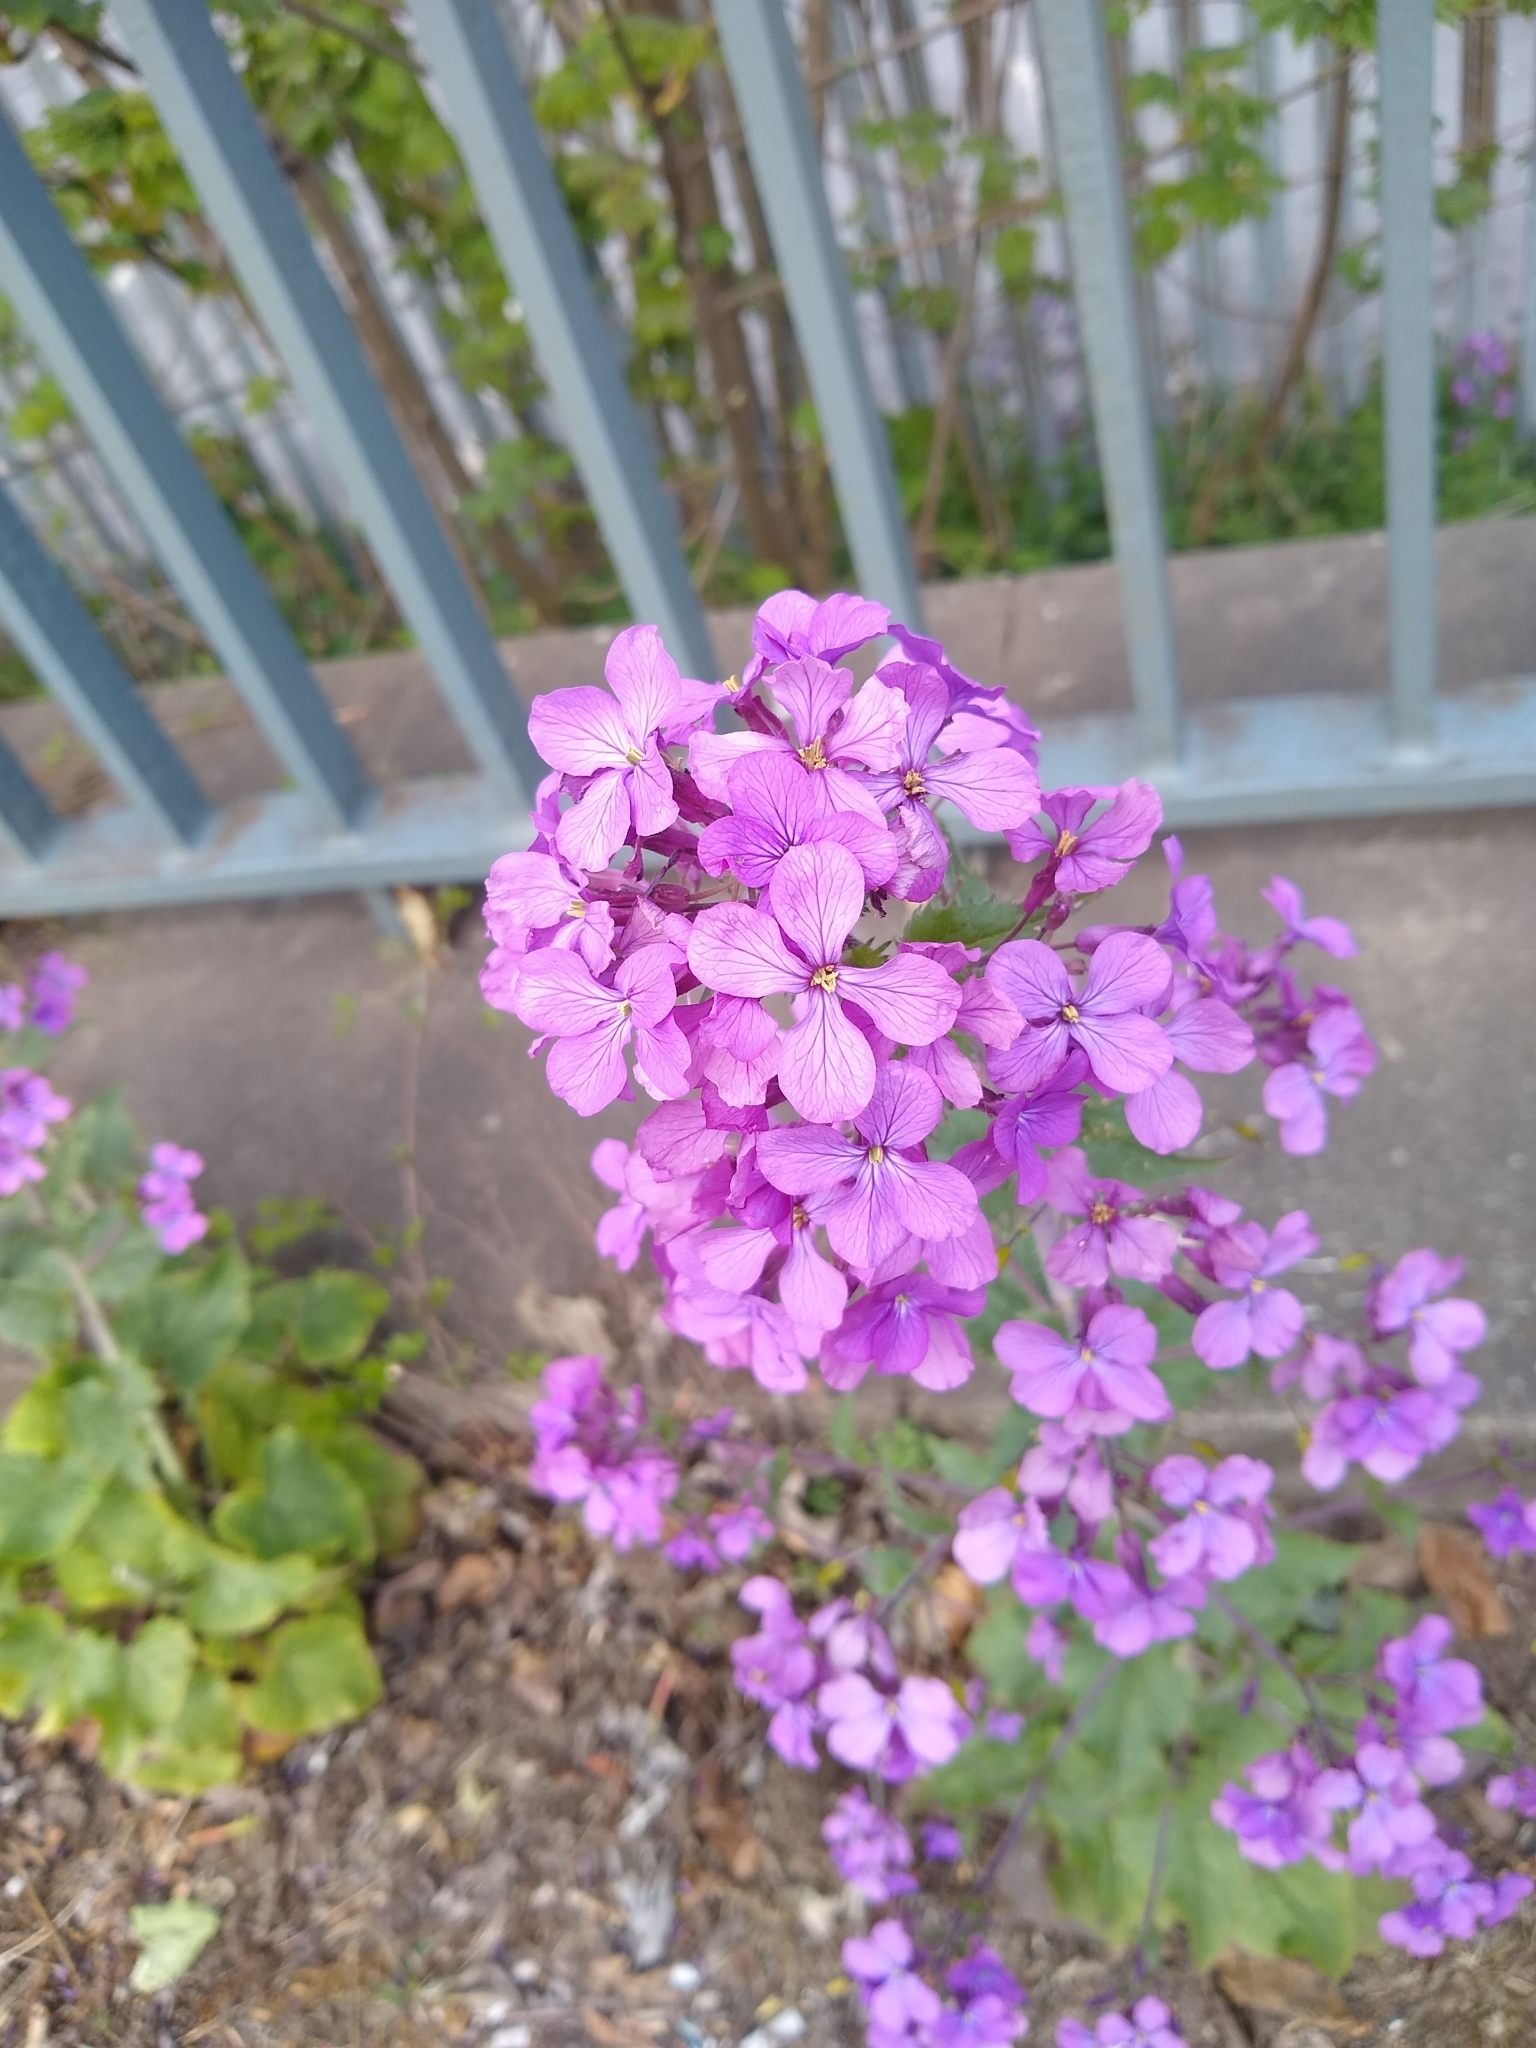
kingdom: Plantae
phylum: Tracheophyta
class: Magnoliopsida
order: Brassicales
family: Brassicaceae
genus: Lunaria
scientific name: Lunaria annua
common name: Honesty
